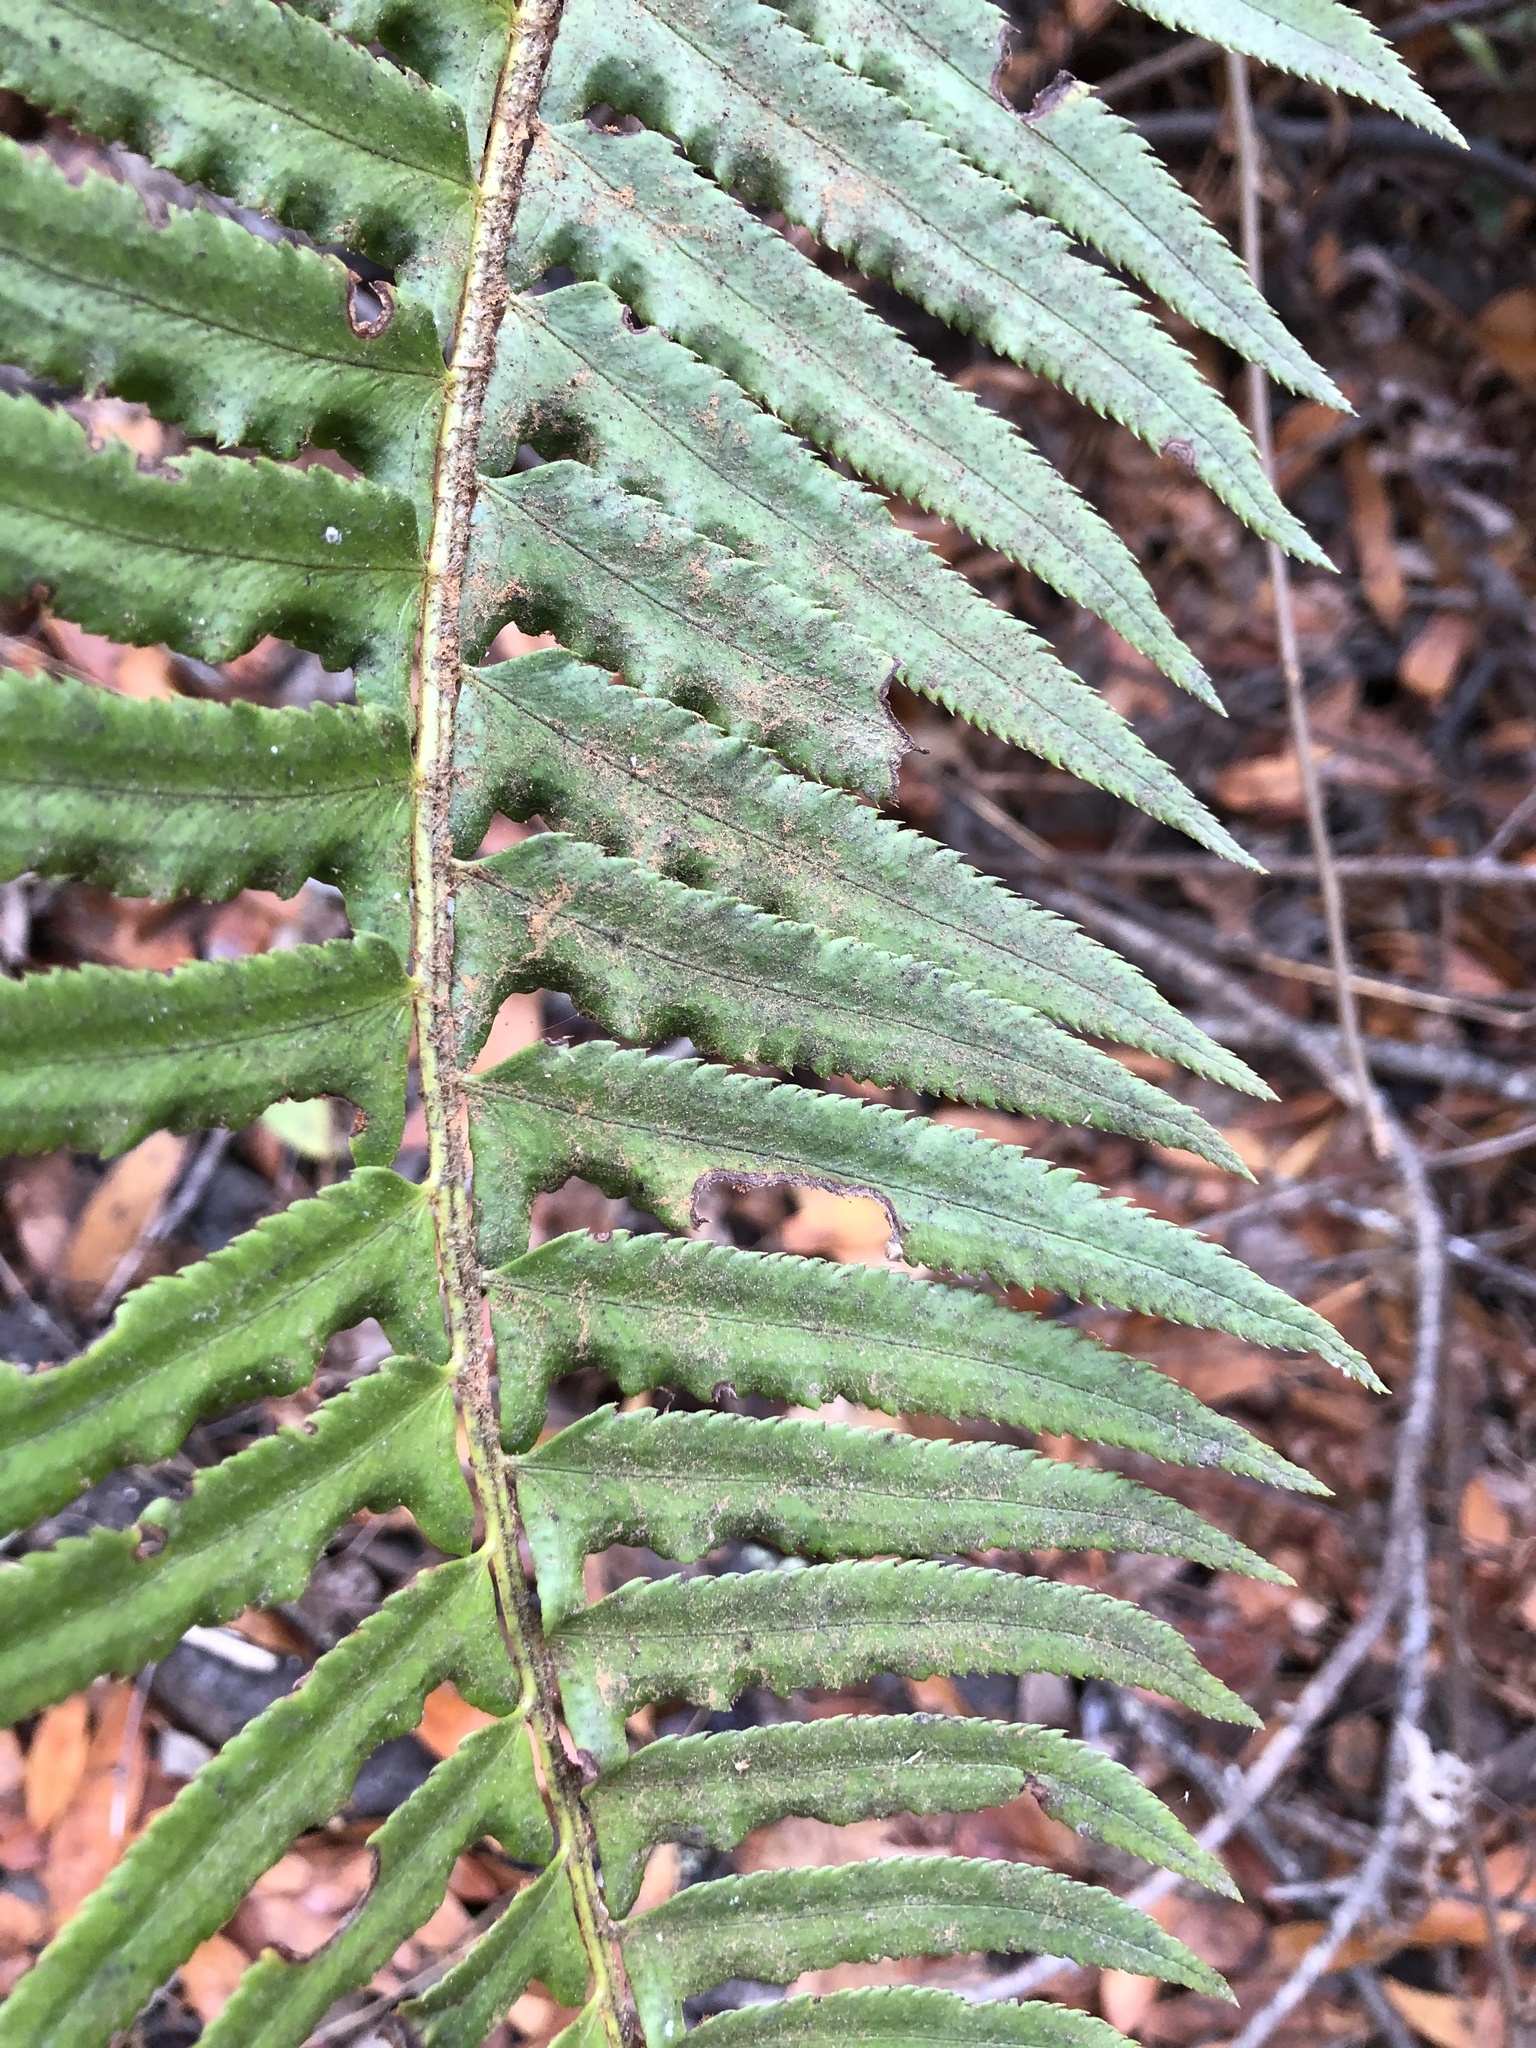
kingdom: Plantae
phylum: Tracheophyta
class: Polypodiopsida
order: Polypodiales
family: Dryopteridaceae
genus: Polystichum
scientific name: Polystichum munitum
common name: Western sword-fern
